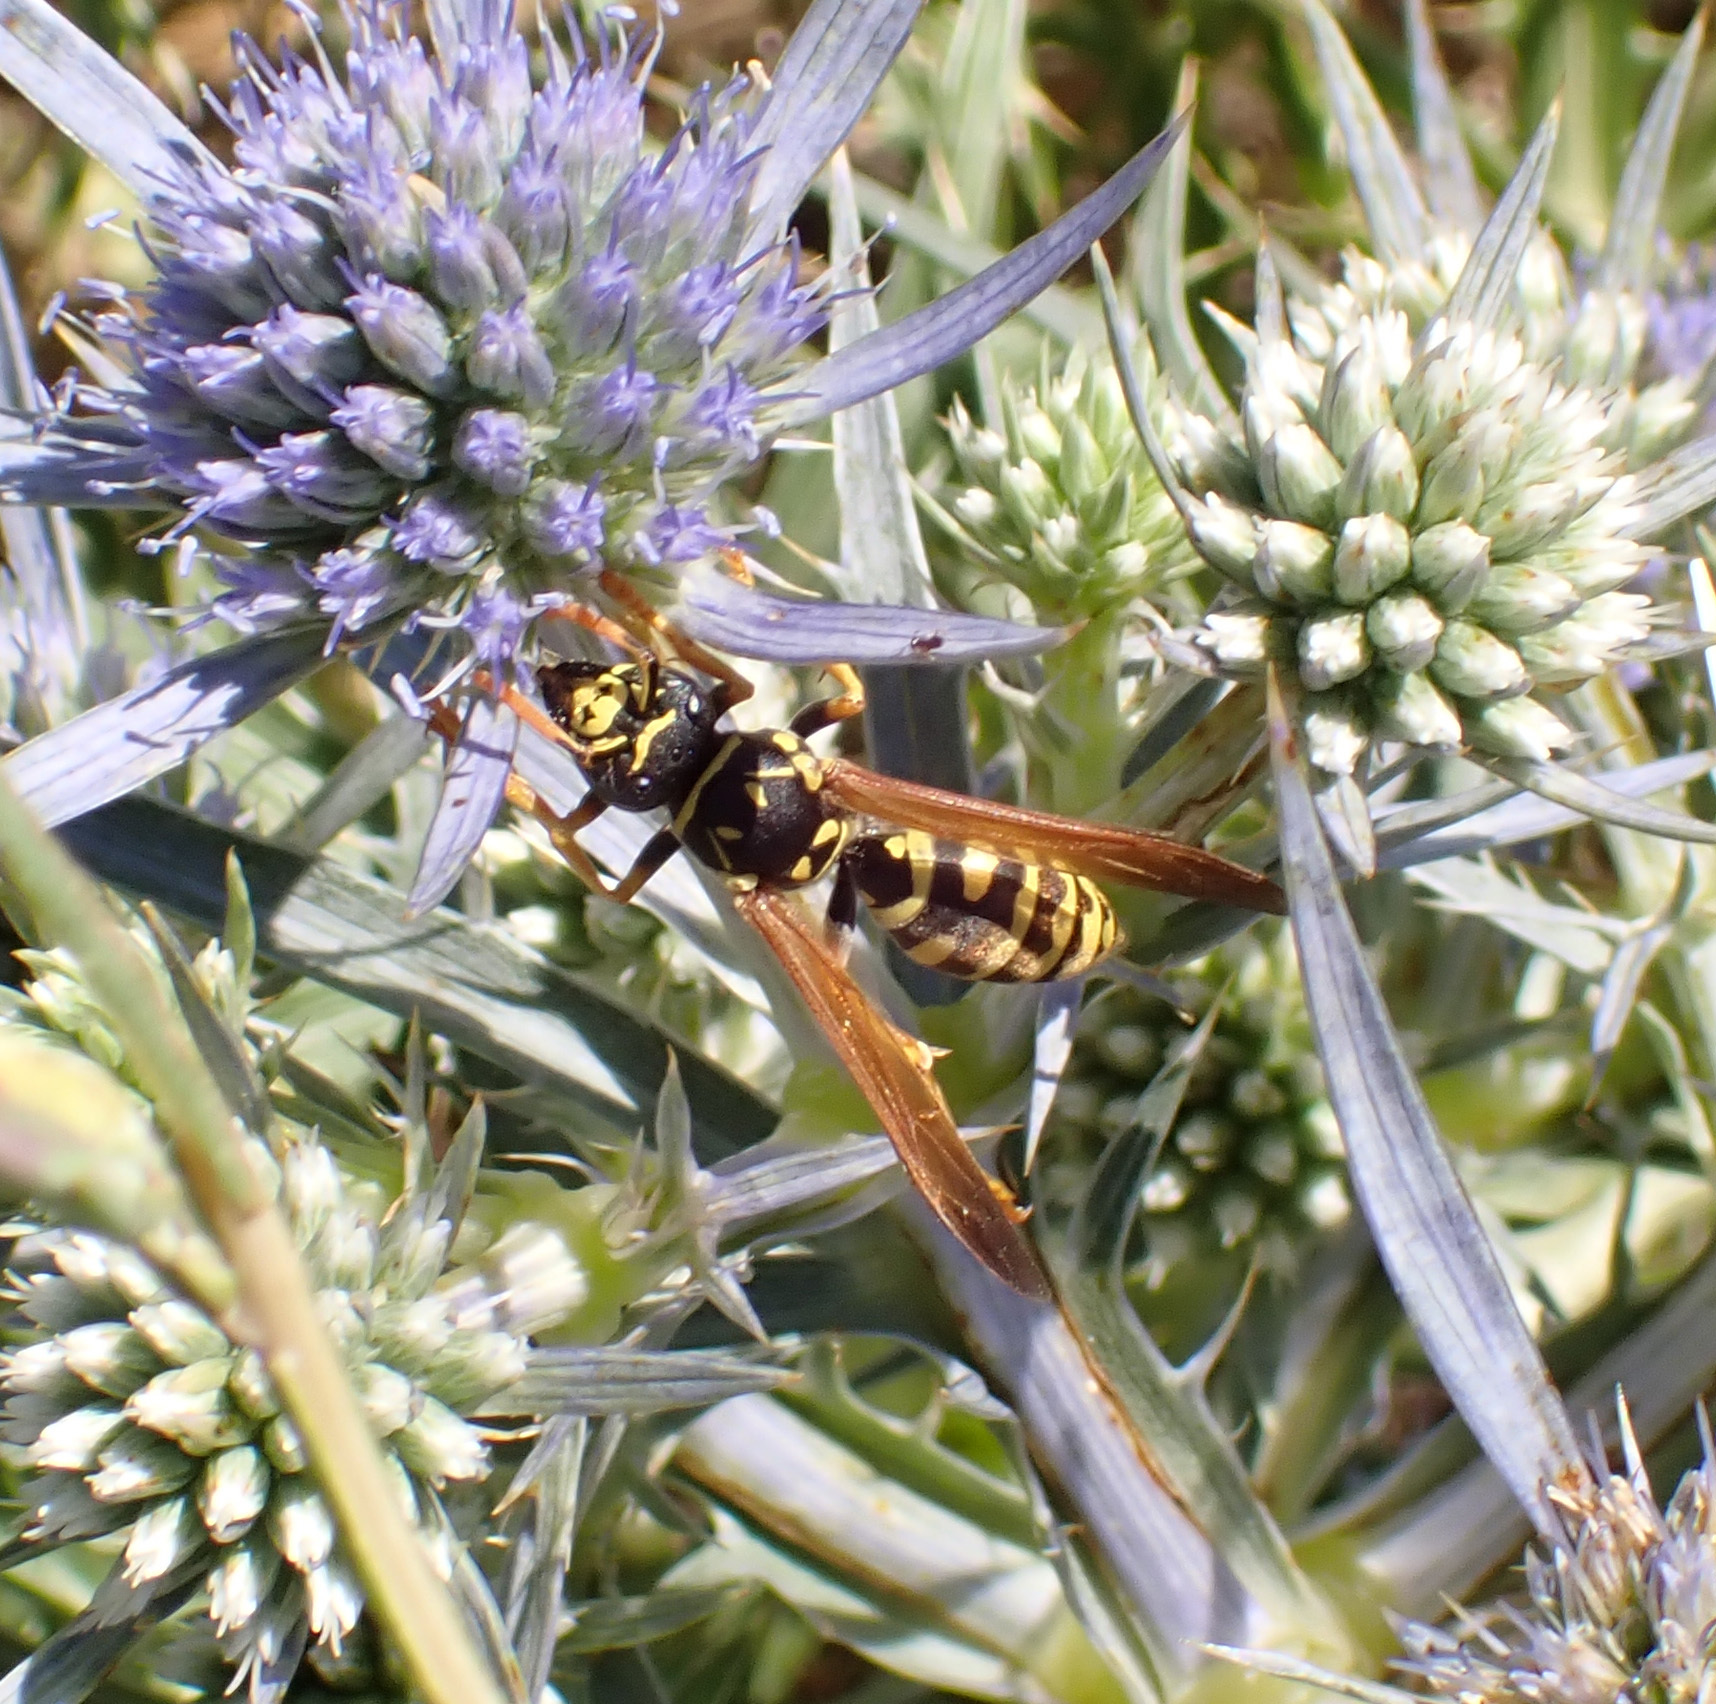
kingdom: Animalia
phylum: Arthropoda
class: Insecta
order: Hymenoptera
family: Eumenidae
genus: Polistes
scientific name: Polistes dominula
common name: Paper wasp
